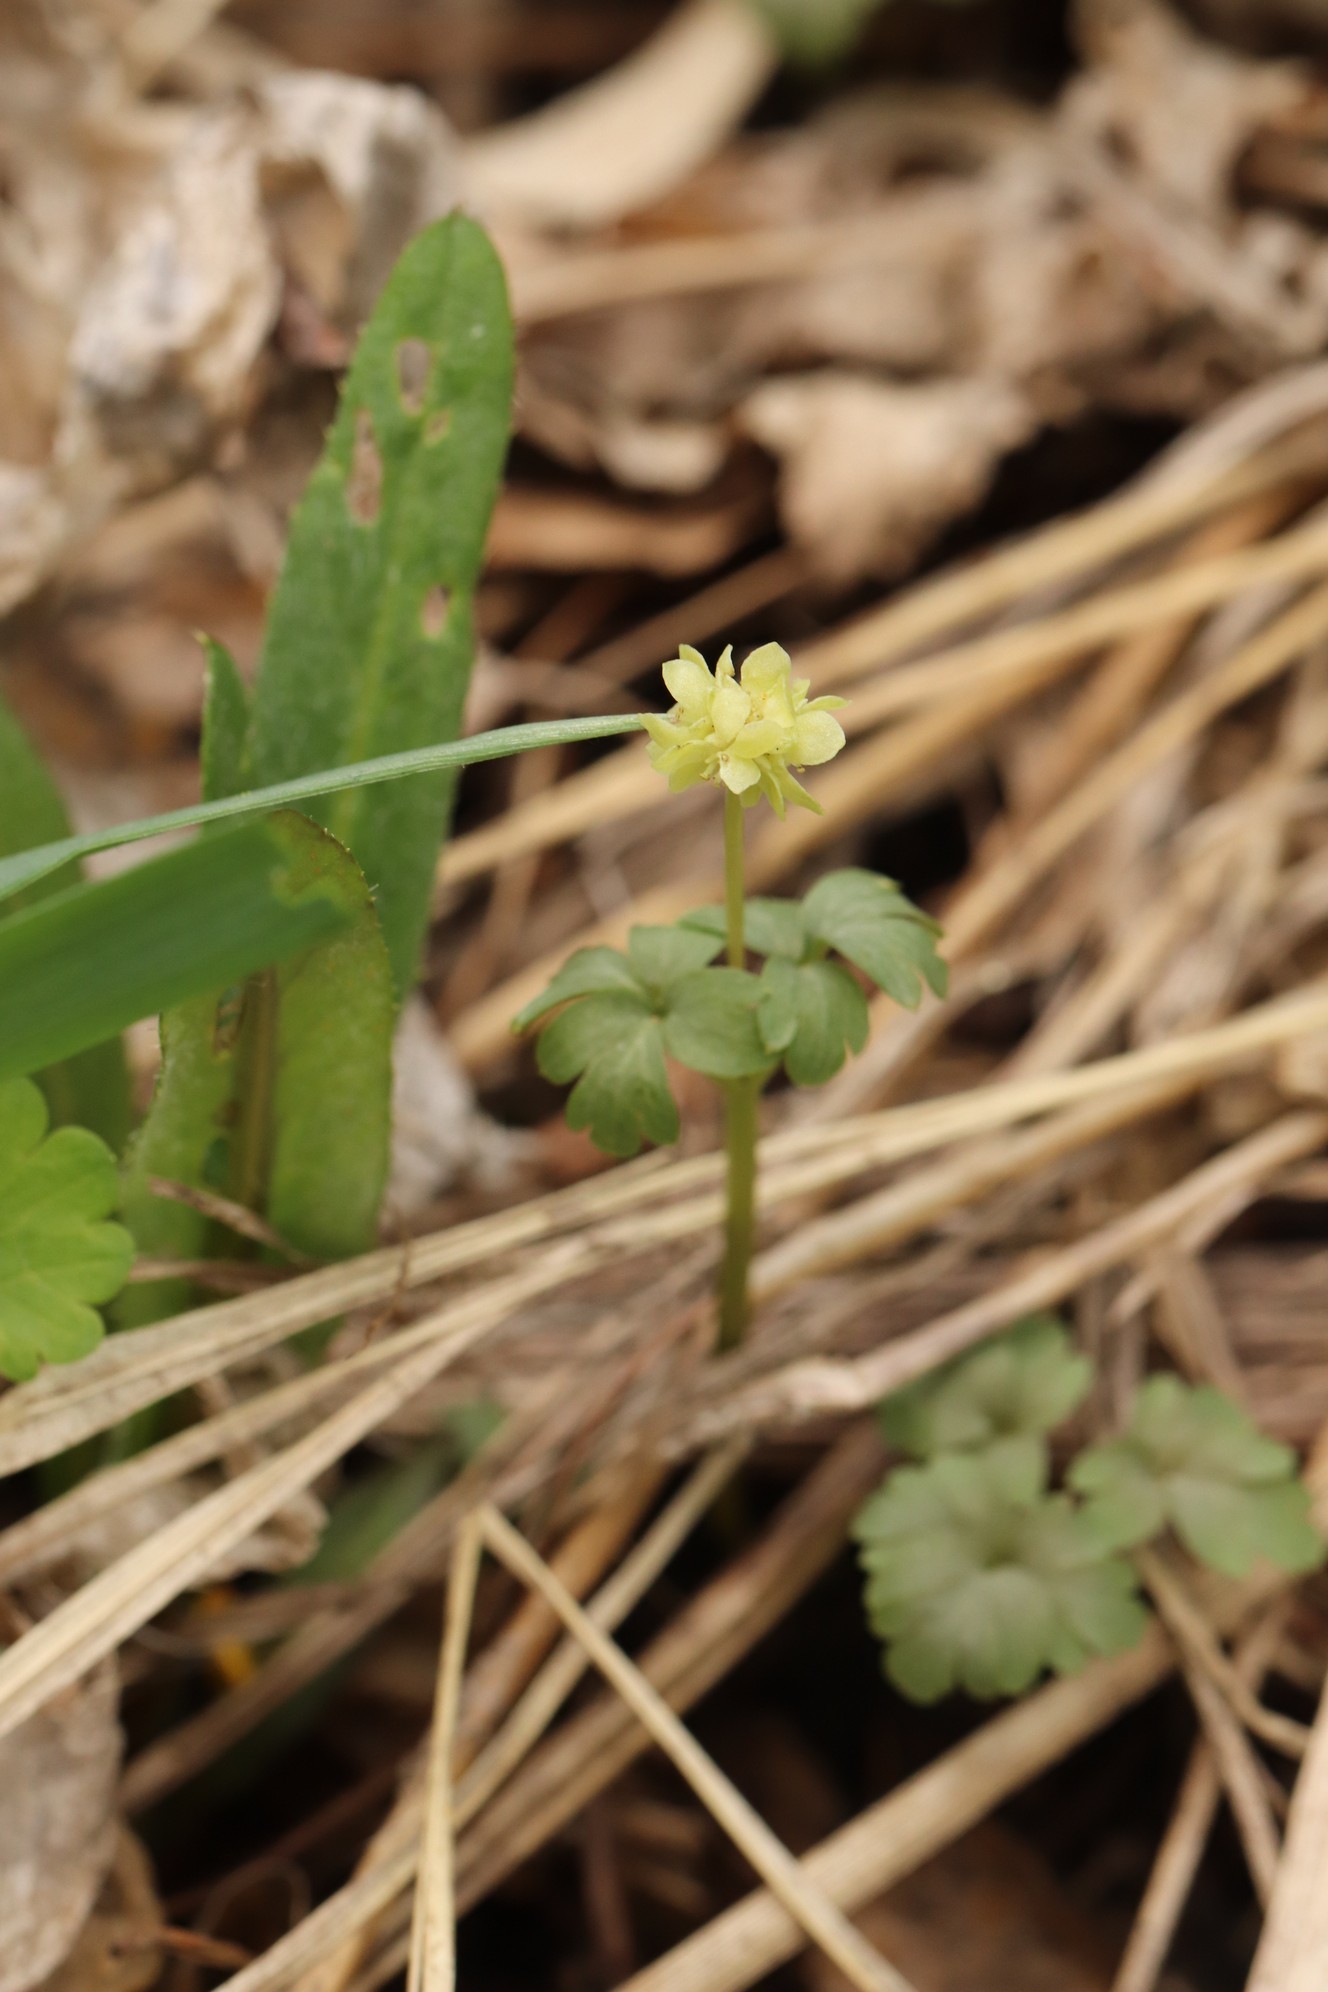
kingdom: Plantae
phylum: Tracheophyta
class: Magnoliopsida
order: Dipsacales
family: Viburnaceae
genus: Adoxa
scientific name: Adoxa moschatellina
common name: Moschatel
